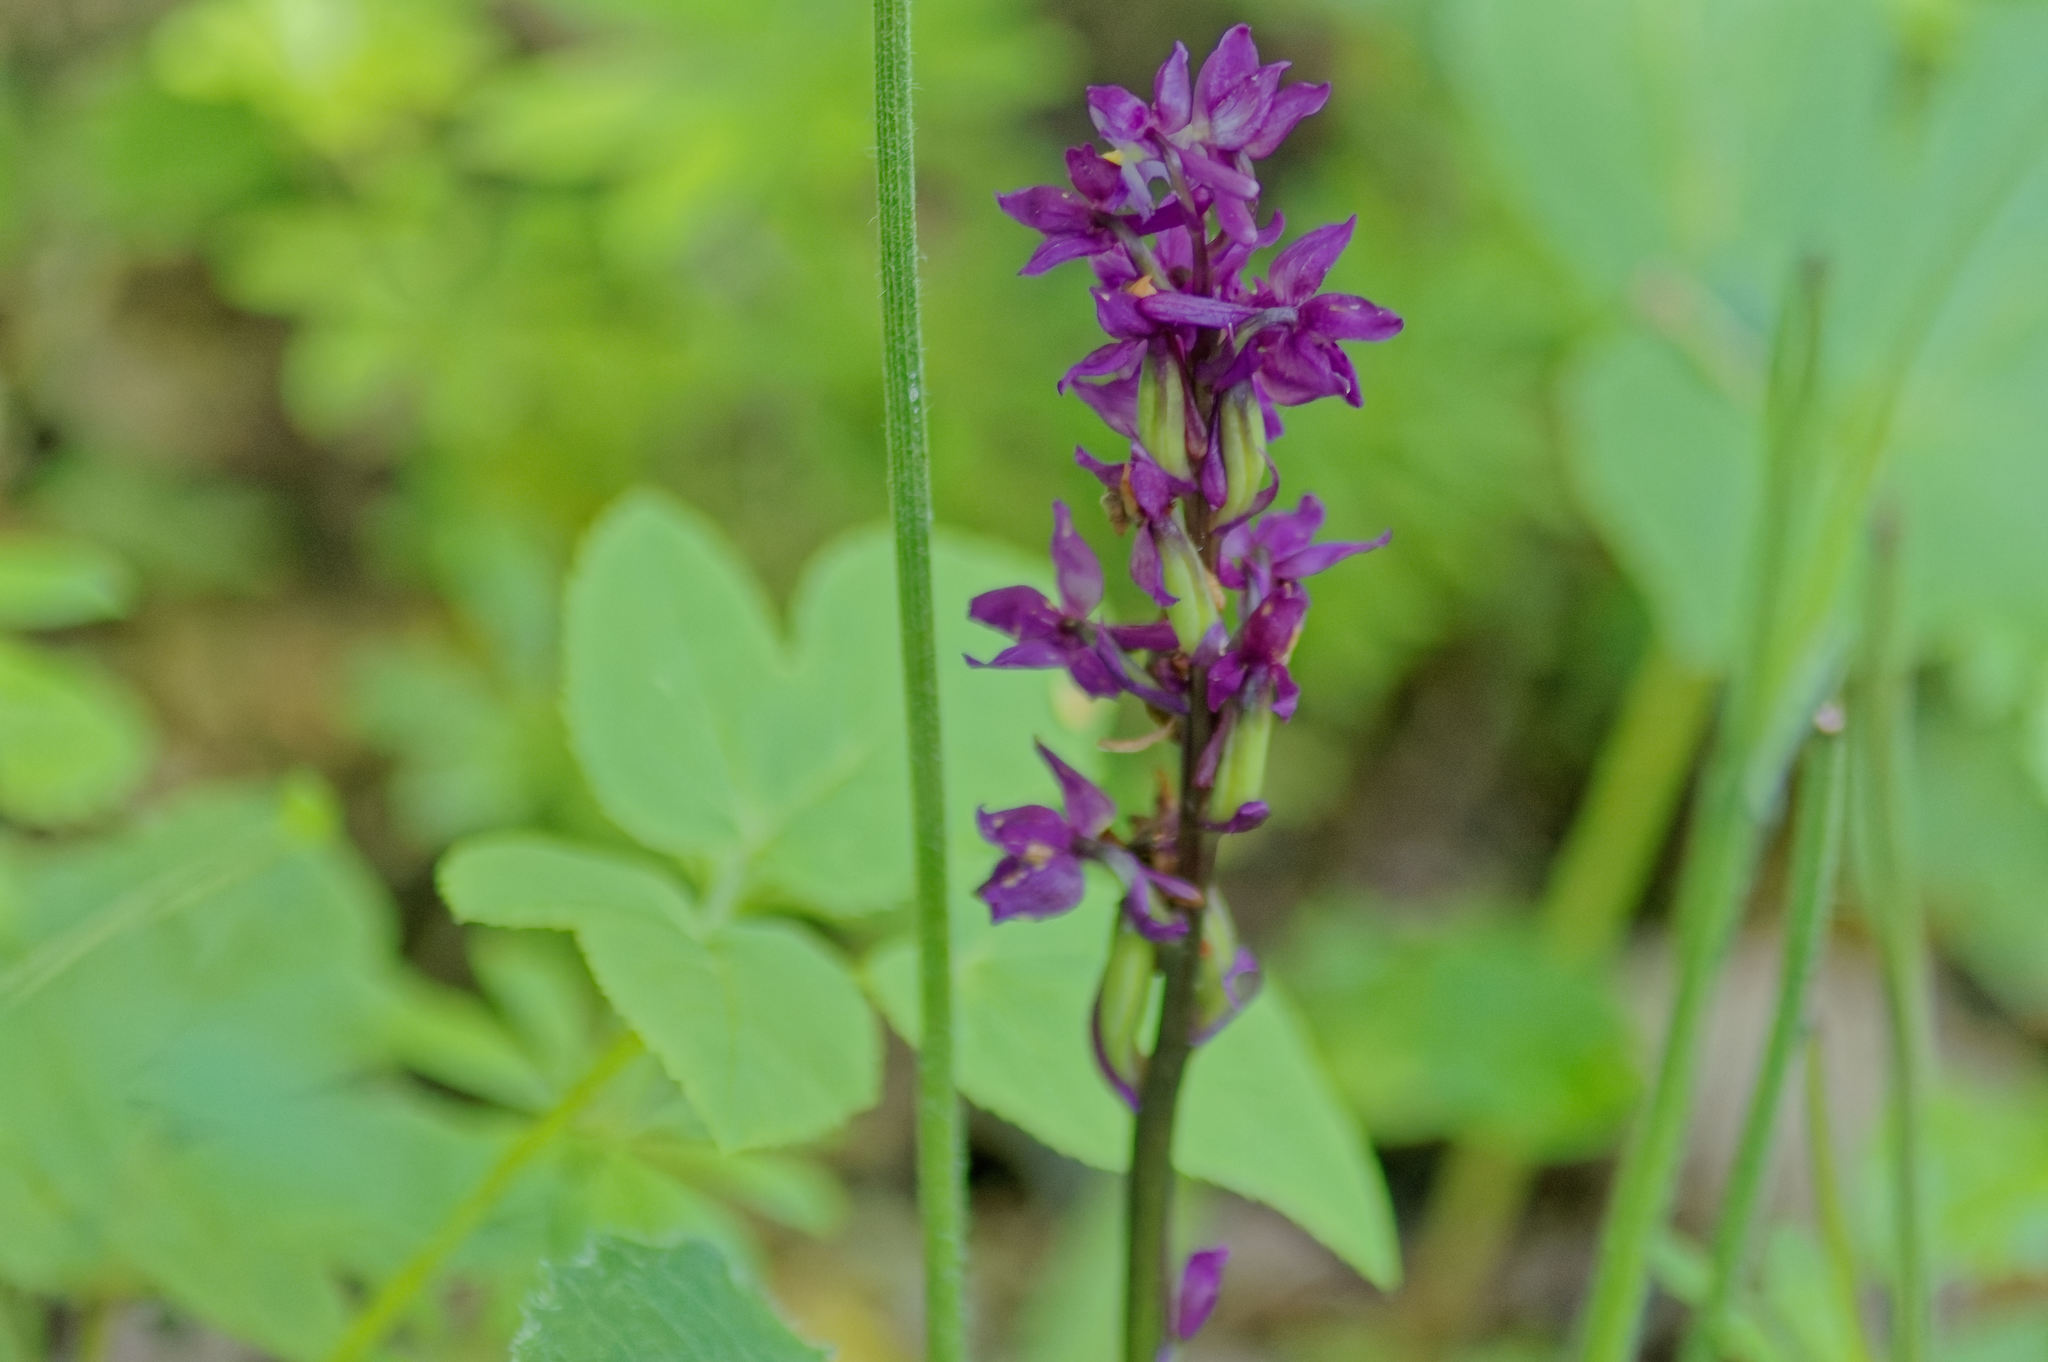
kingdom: Plantae
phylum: Tracheophyta
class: Liliopsida
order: Asparagales
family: Orchidaceae
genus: Orchis
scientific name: Orchis mascula
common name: Early-purple orchid
